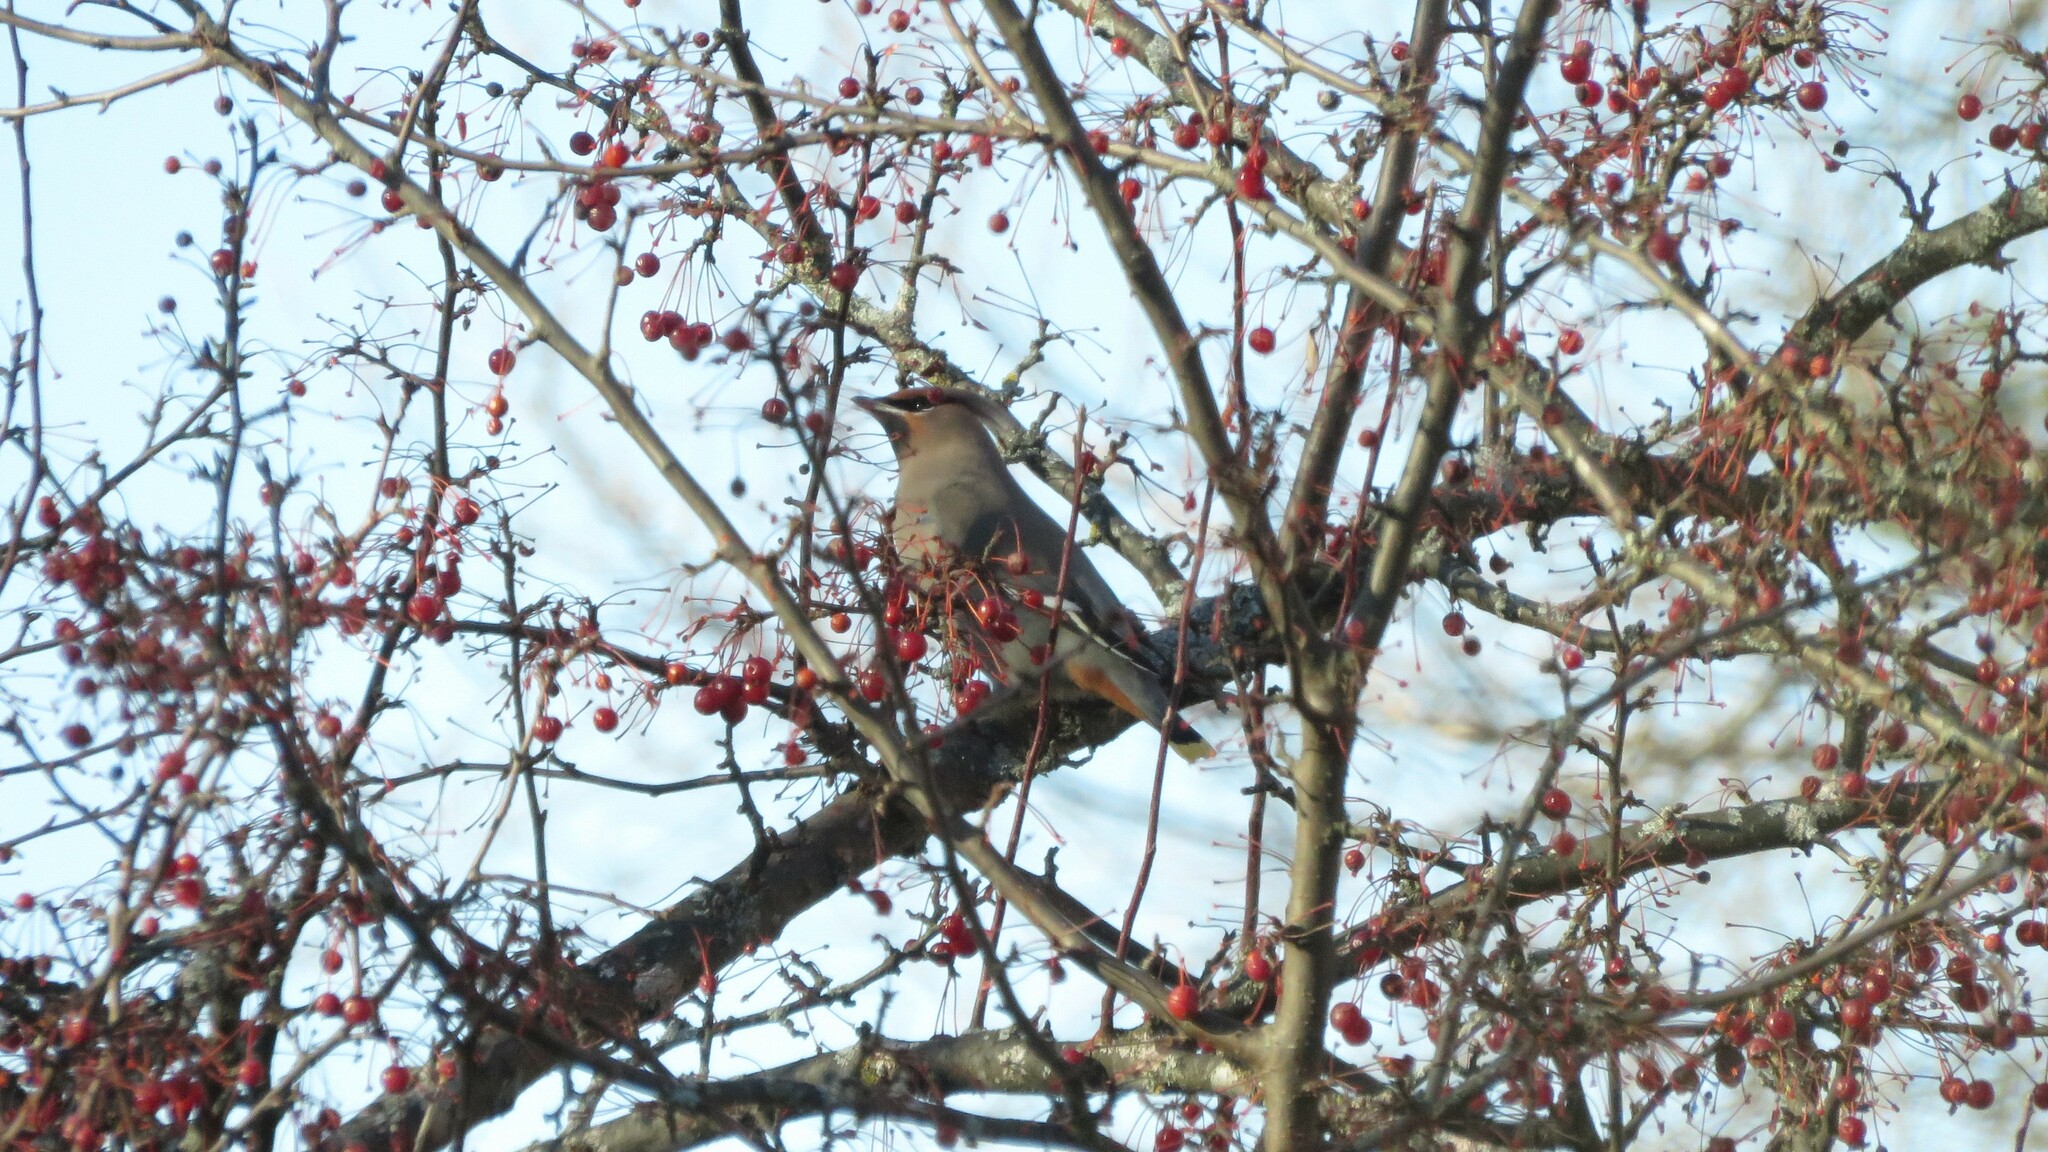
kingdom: Animalia
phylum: Chordata
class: Aves
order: Passeriformes
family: Bombycillidae
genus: Bombycilla
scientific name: Bombycilla garrulus
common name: Bohemian waxwing
